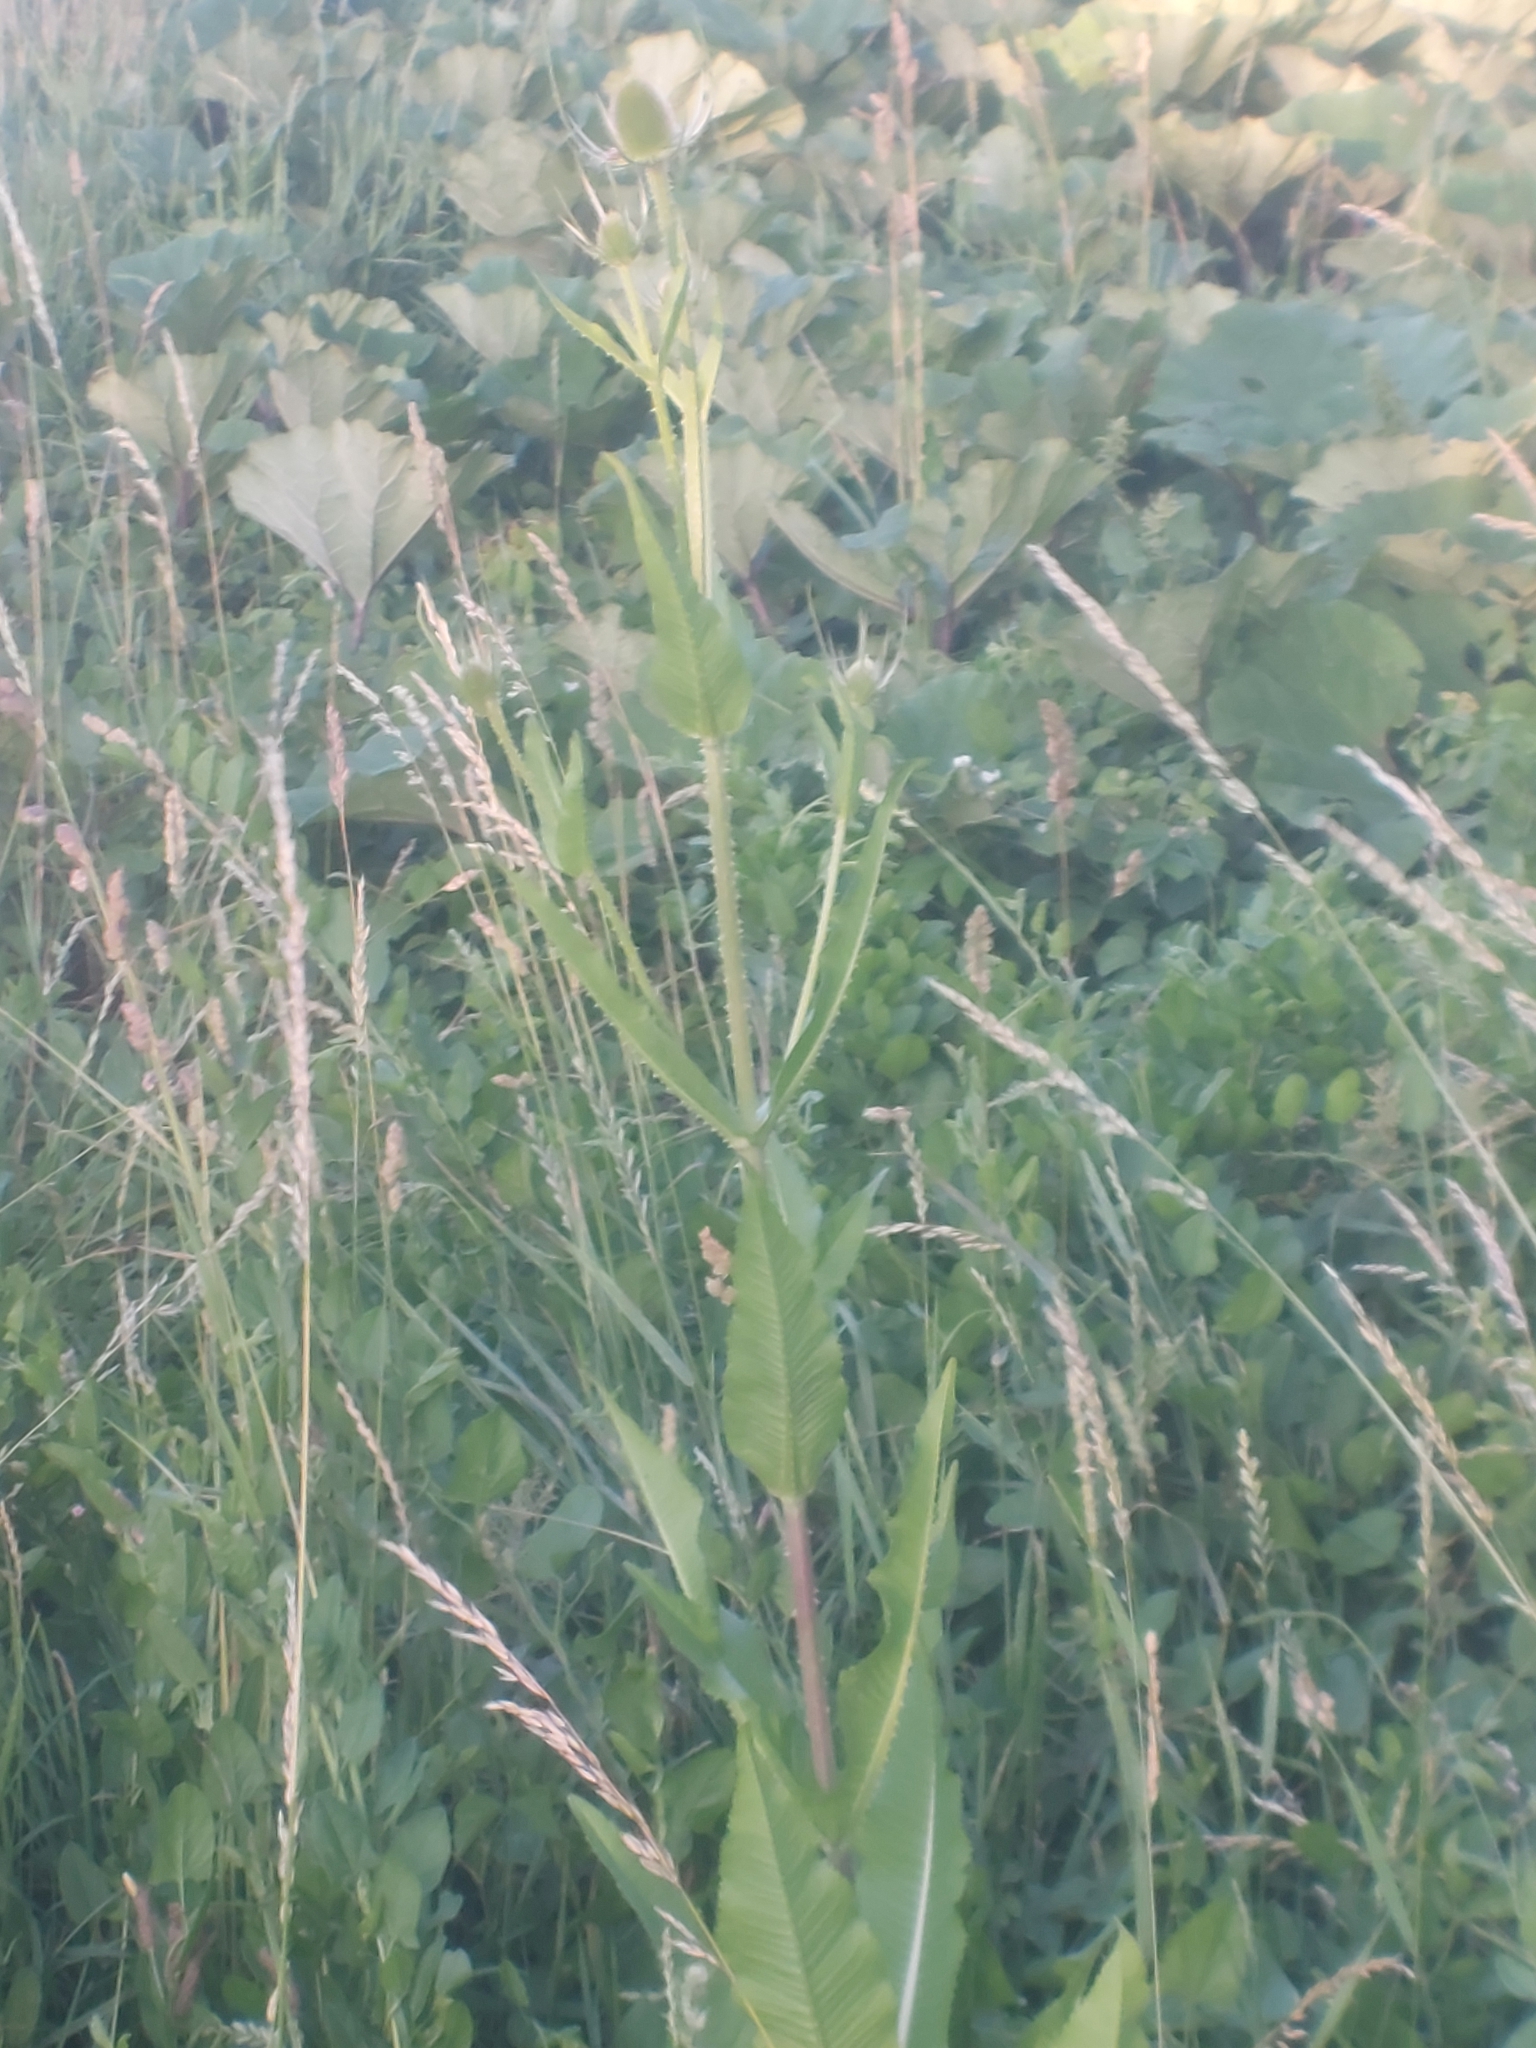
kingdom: Plantae
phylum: Tracheophyta
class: Magnoliopsida
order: Dipsacales
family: Caprifoliaceae
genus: Dipsacus
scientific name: Dipsacus fullonum
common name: Teasel
